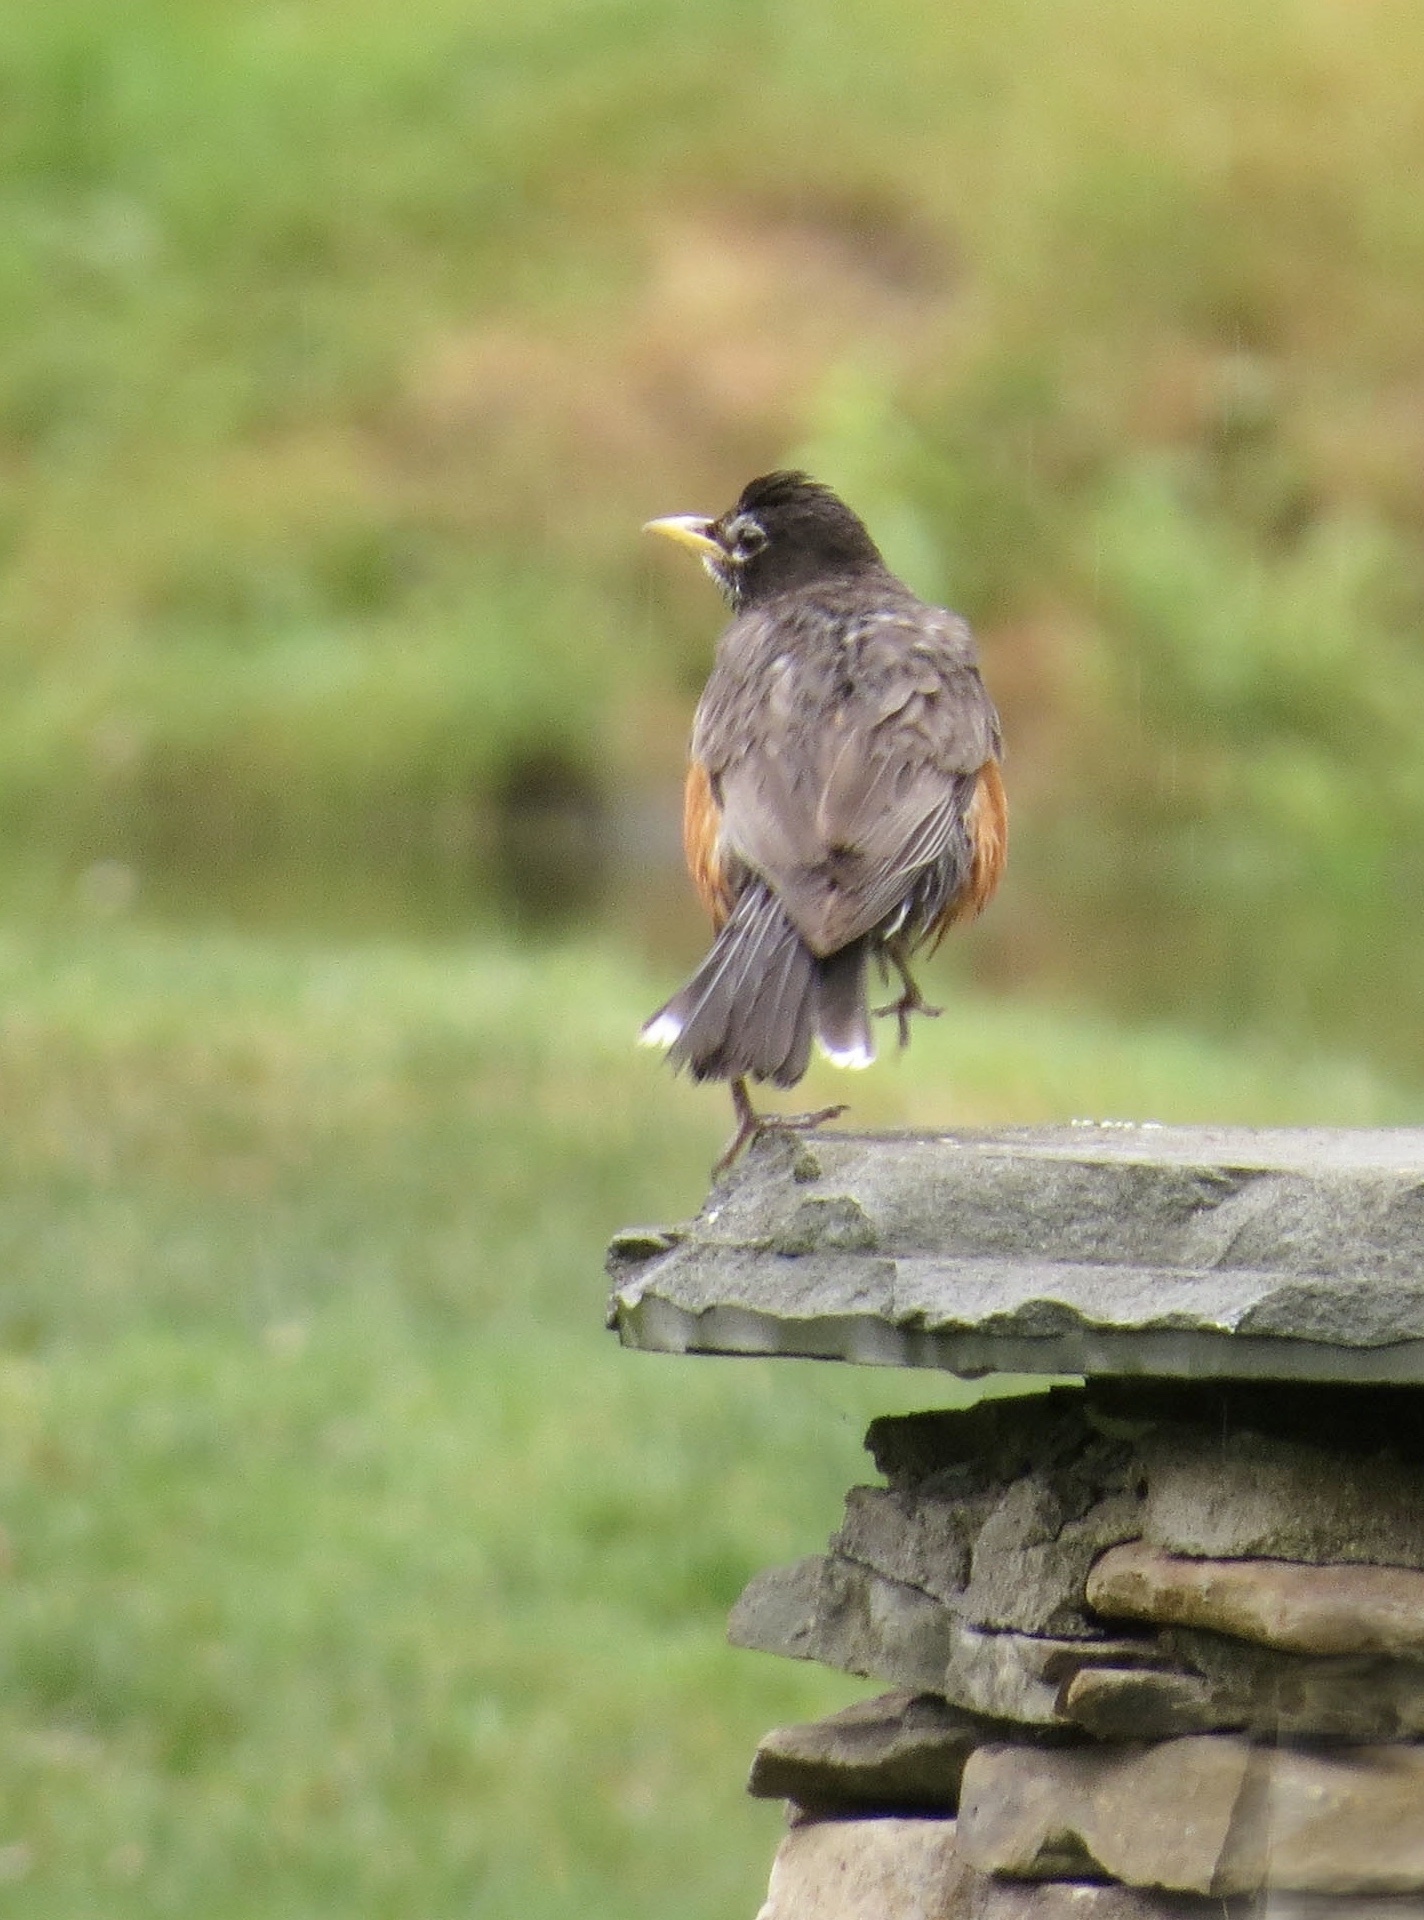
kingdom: Animalia
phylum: Chordata
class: Aves
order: Passeriformes
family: Turdidae
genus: Turdus
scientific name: Turdus migratorius
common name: American robin
